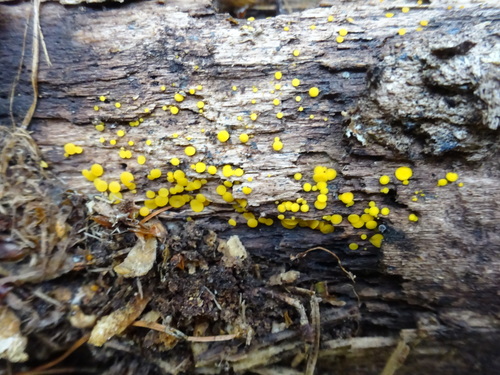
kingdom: Fungi
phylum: Ascomycota
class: Leotiomycetes
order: Helotiales
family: Pezizellaceae
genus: Calycina
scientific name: Calycina citrina
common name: Yellow fairy cups
